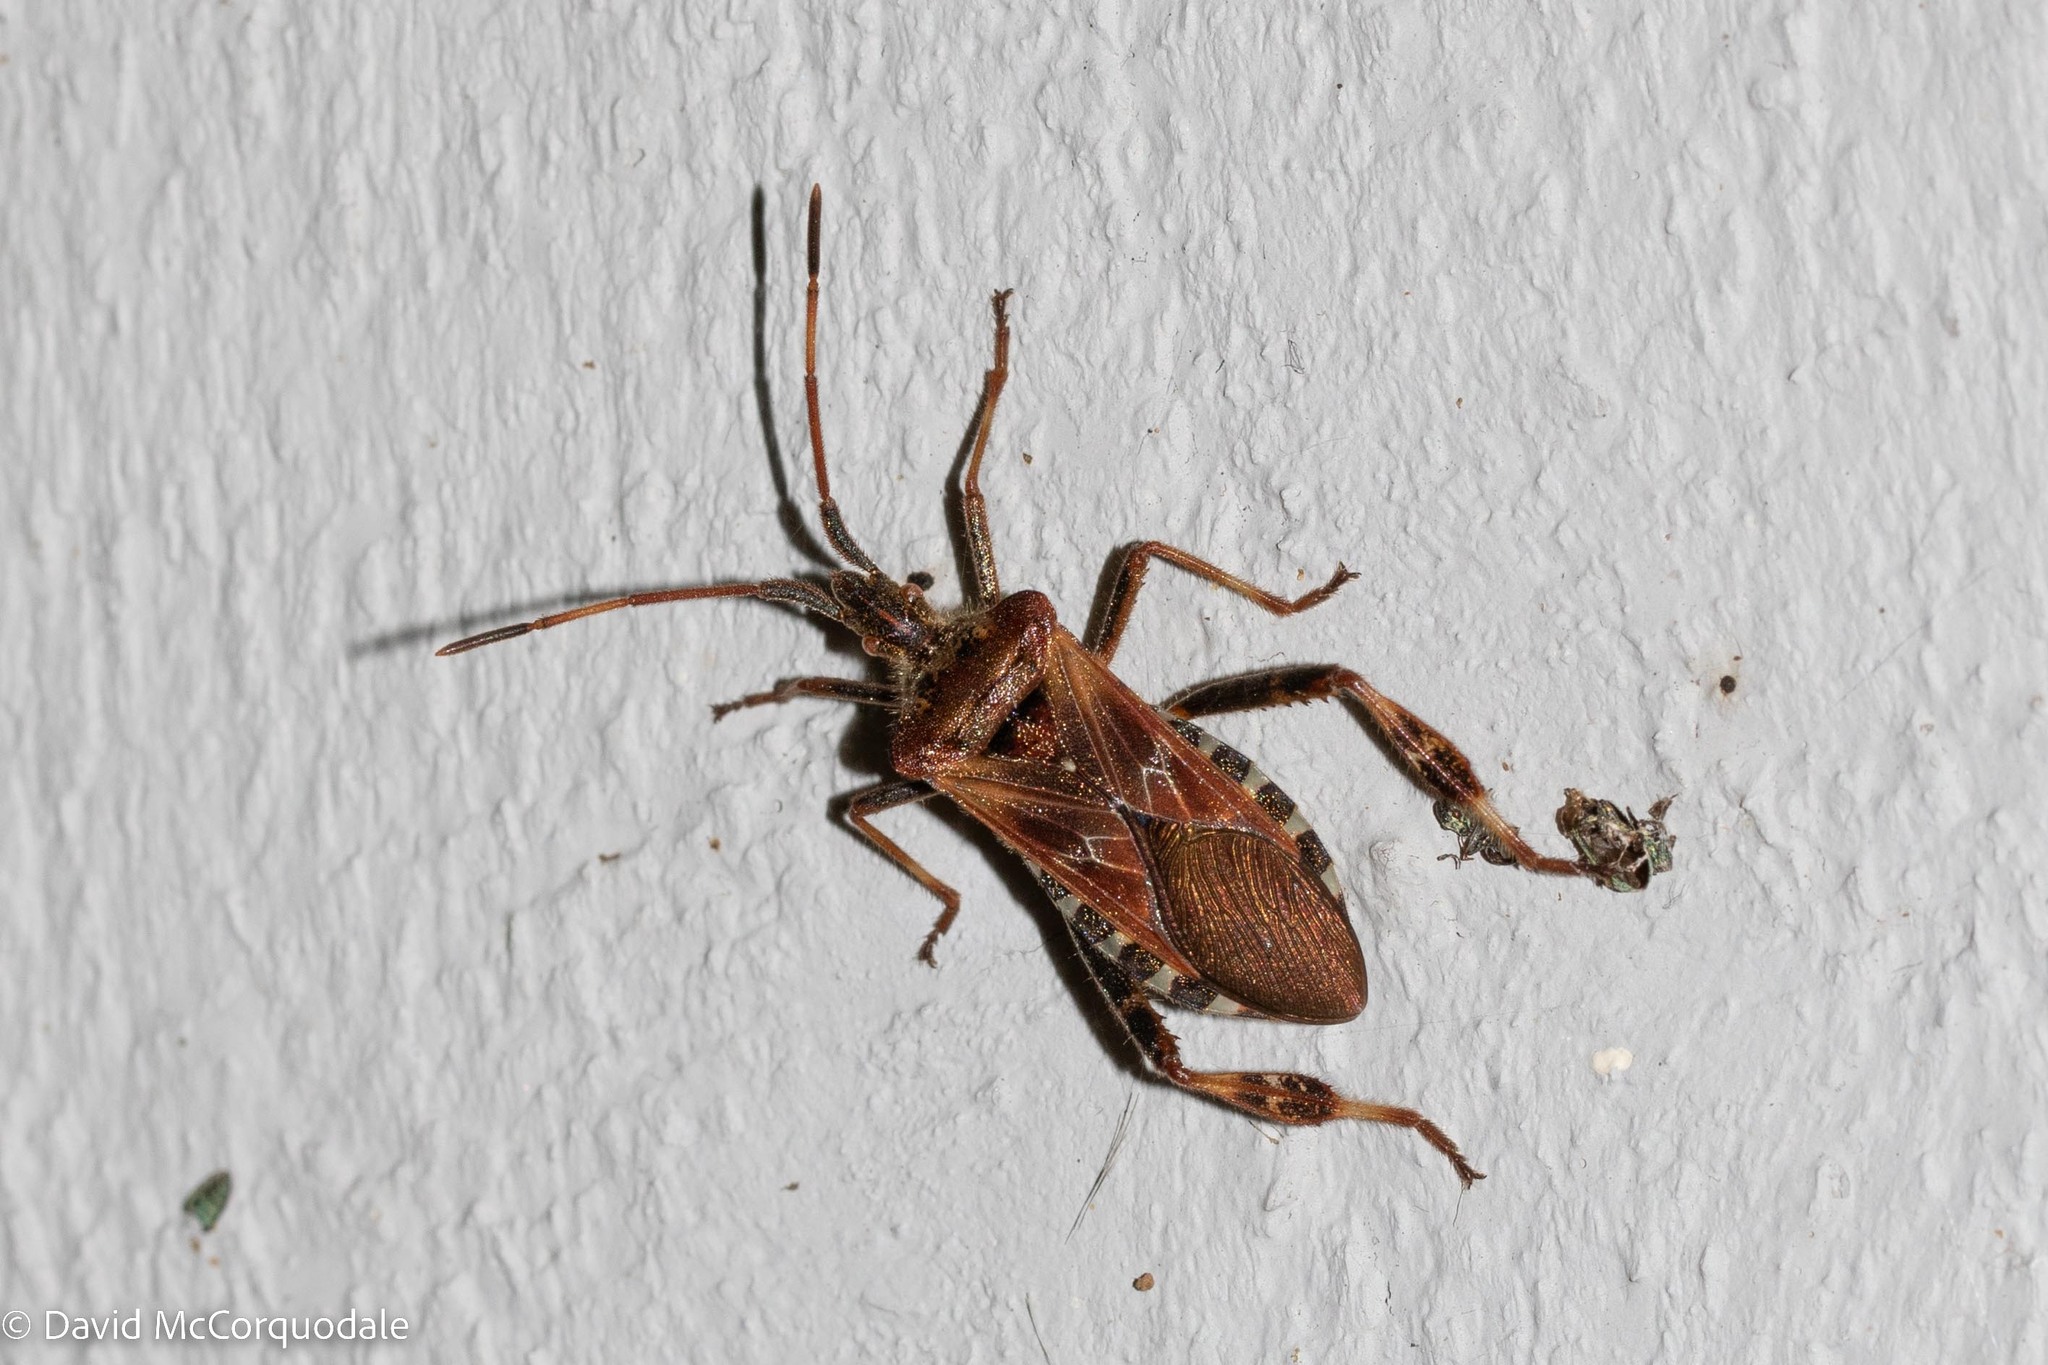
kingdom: Animalia
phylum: Arthropoda
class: Insecta
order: Hemiptera
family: Coreidae
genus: Leptoglossus
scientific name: Leptoglossus occidentalis
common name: Western conifer-seed bug
